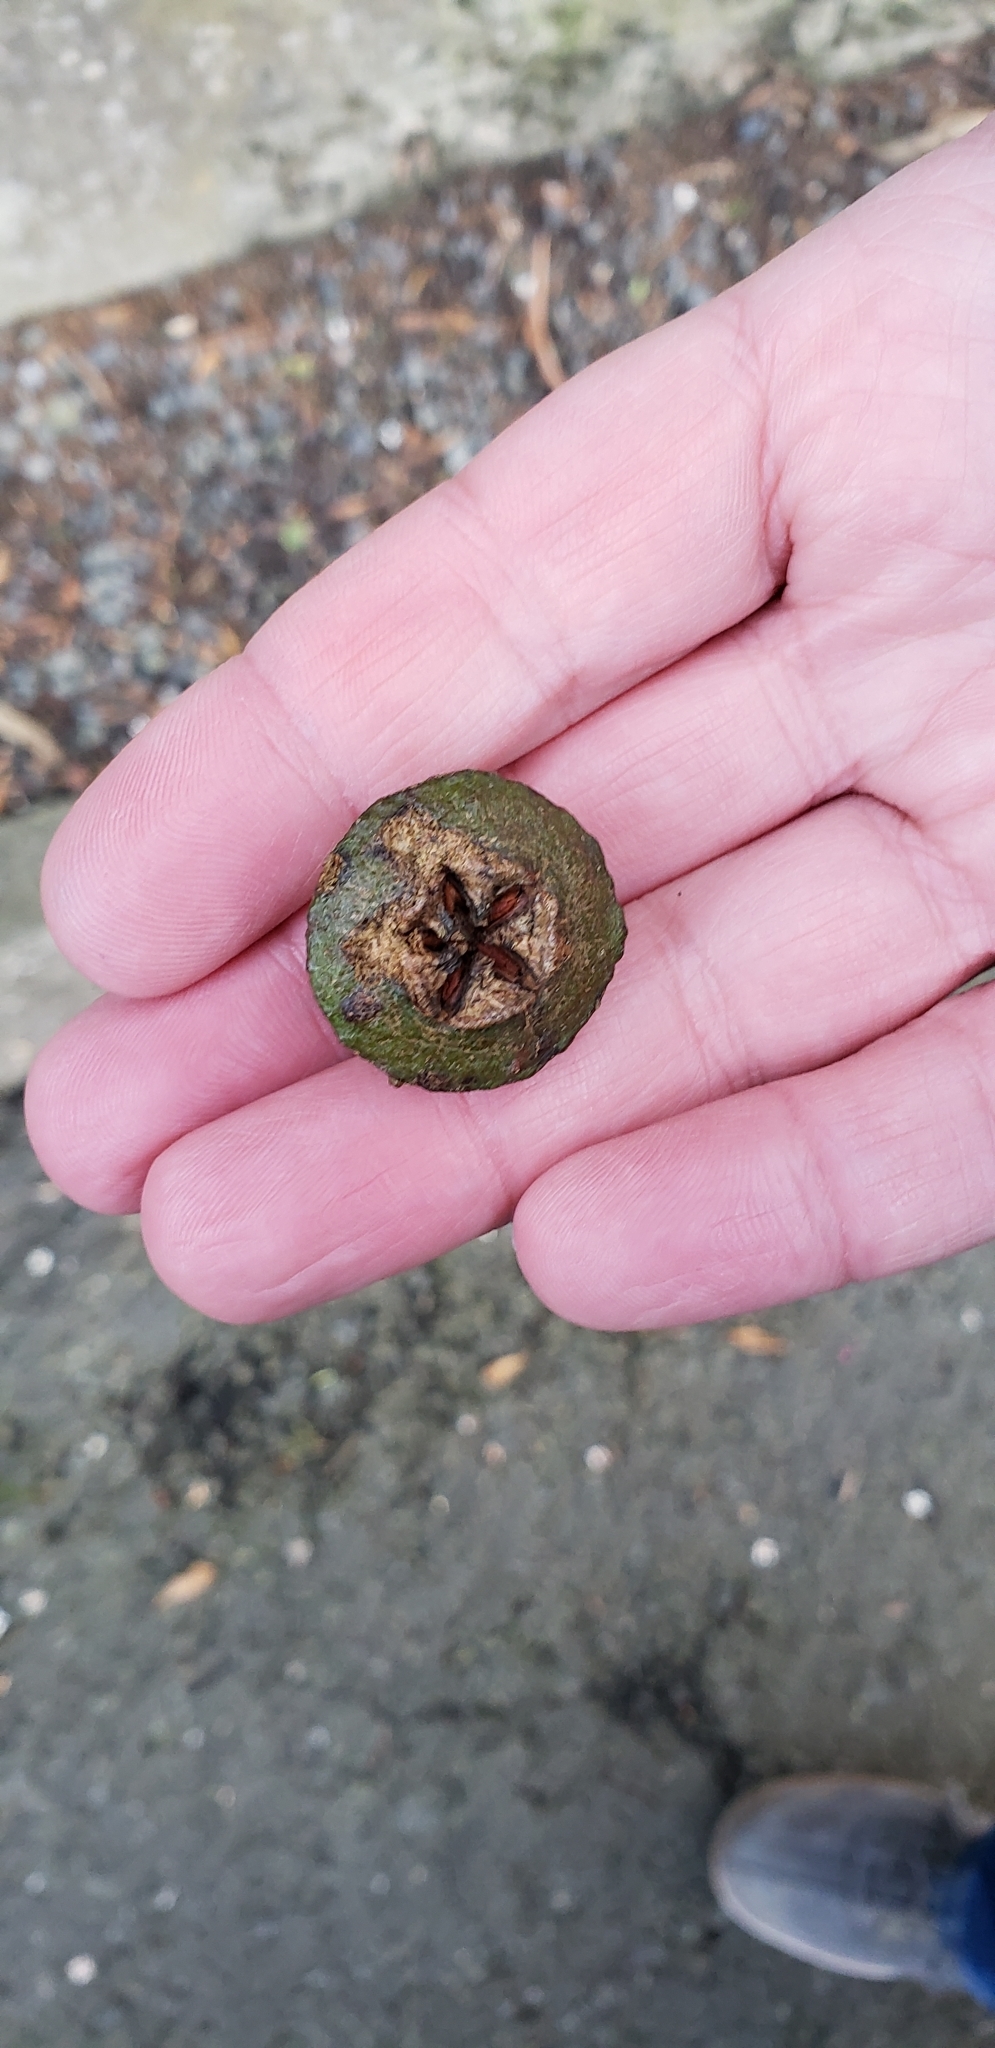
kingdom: Plantae
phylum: Tracheophyta
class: Magnoliopsida
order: Myrtales
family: Myrtaceae
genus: Eucalyptus
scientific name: Eucalyptus globulus
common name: Southern blue-gum
